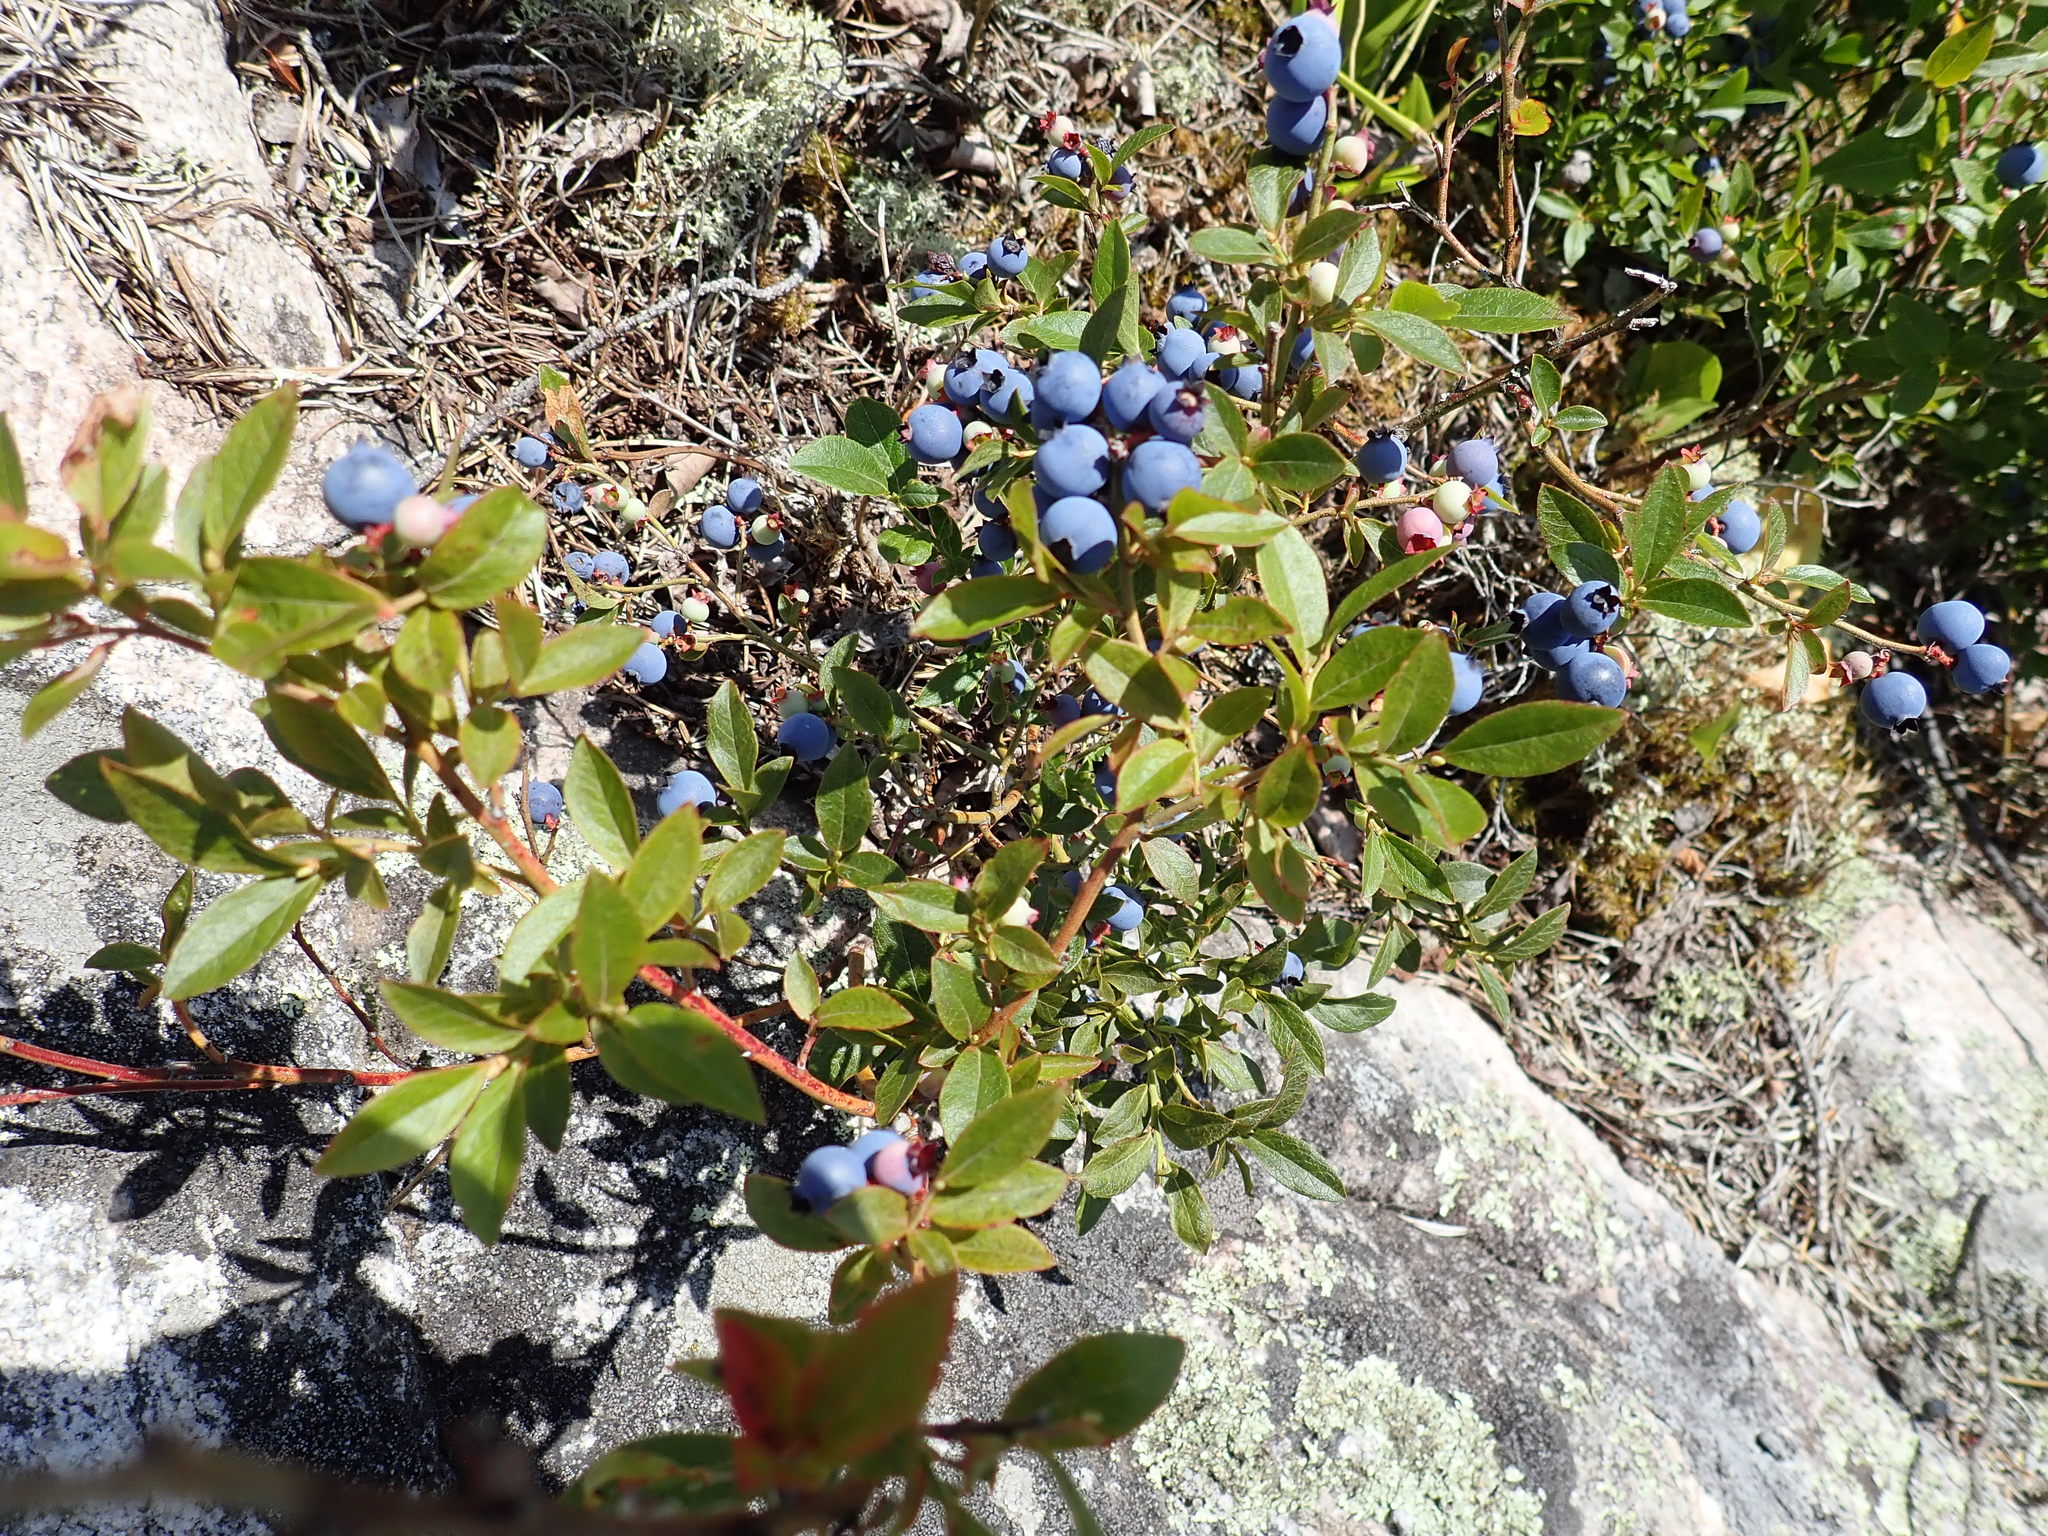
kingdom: Plantae
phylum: Tracheophyta
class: Magnoliopsida
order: Ericales
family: Ericaceae
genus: Vaccinium
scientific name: Vaccinium angustifolium
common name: Early lowbush blueberry
